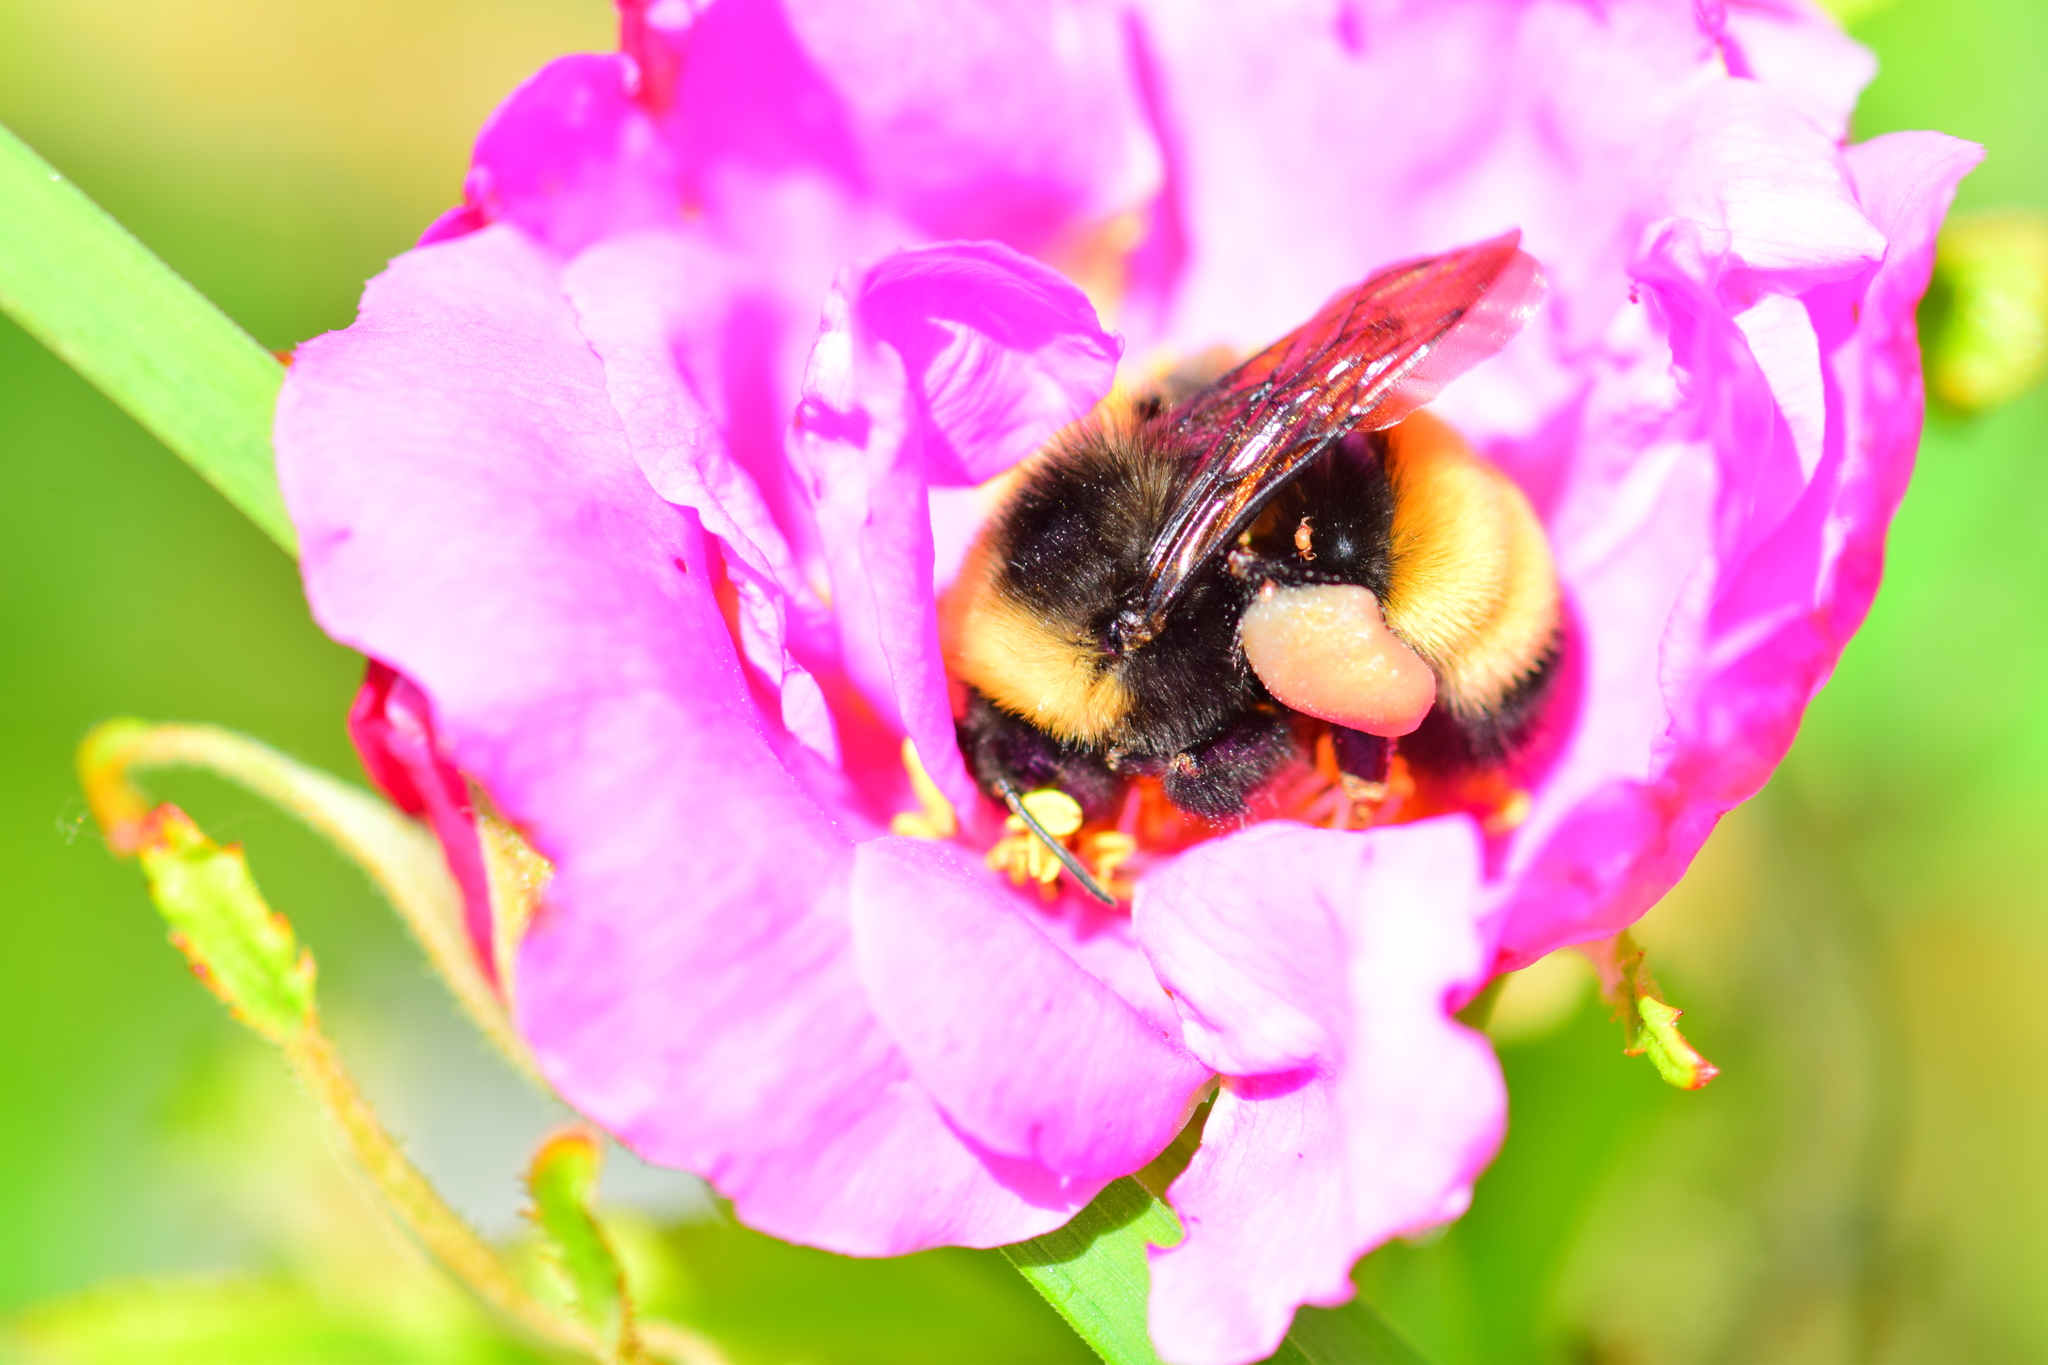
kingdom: Animalia
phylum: Arthropoda
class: Insecta
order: Hymenoptera
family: Apidae
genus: Bombus
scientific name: Bombus terricola
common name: Yellow-banded bumble bee
